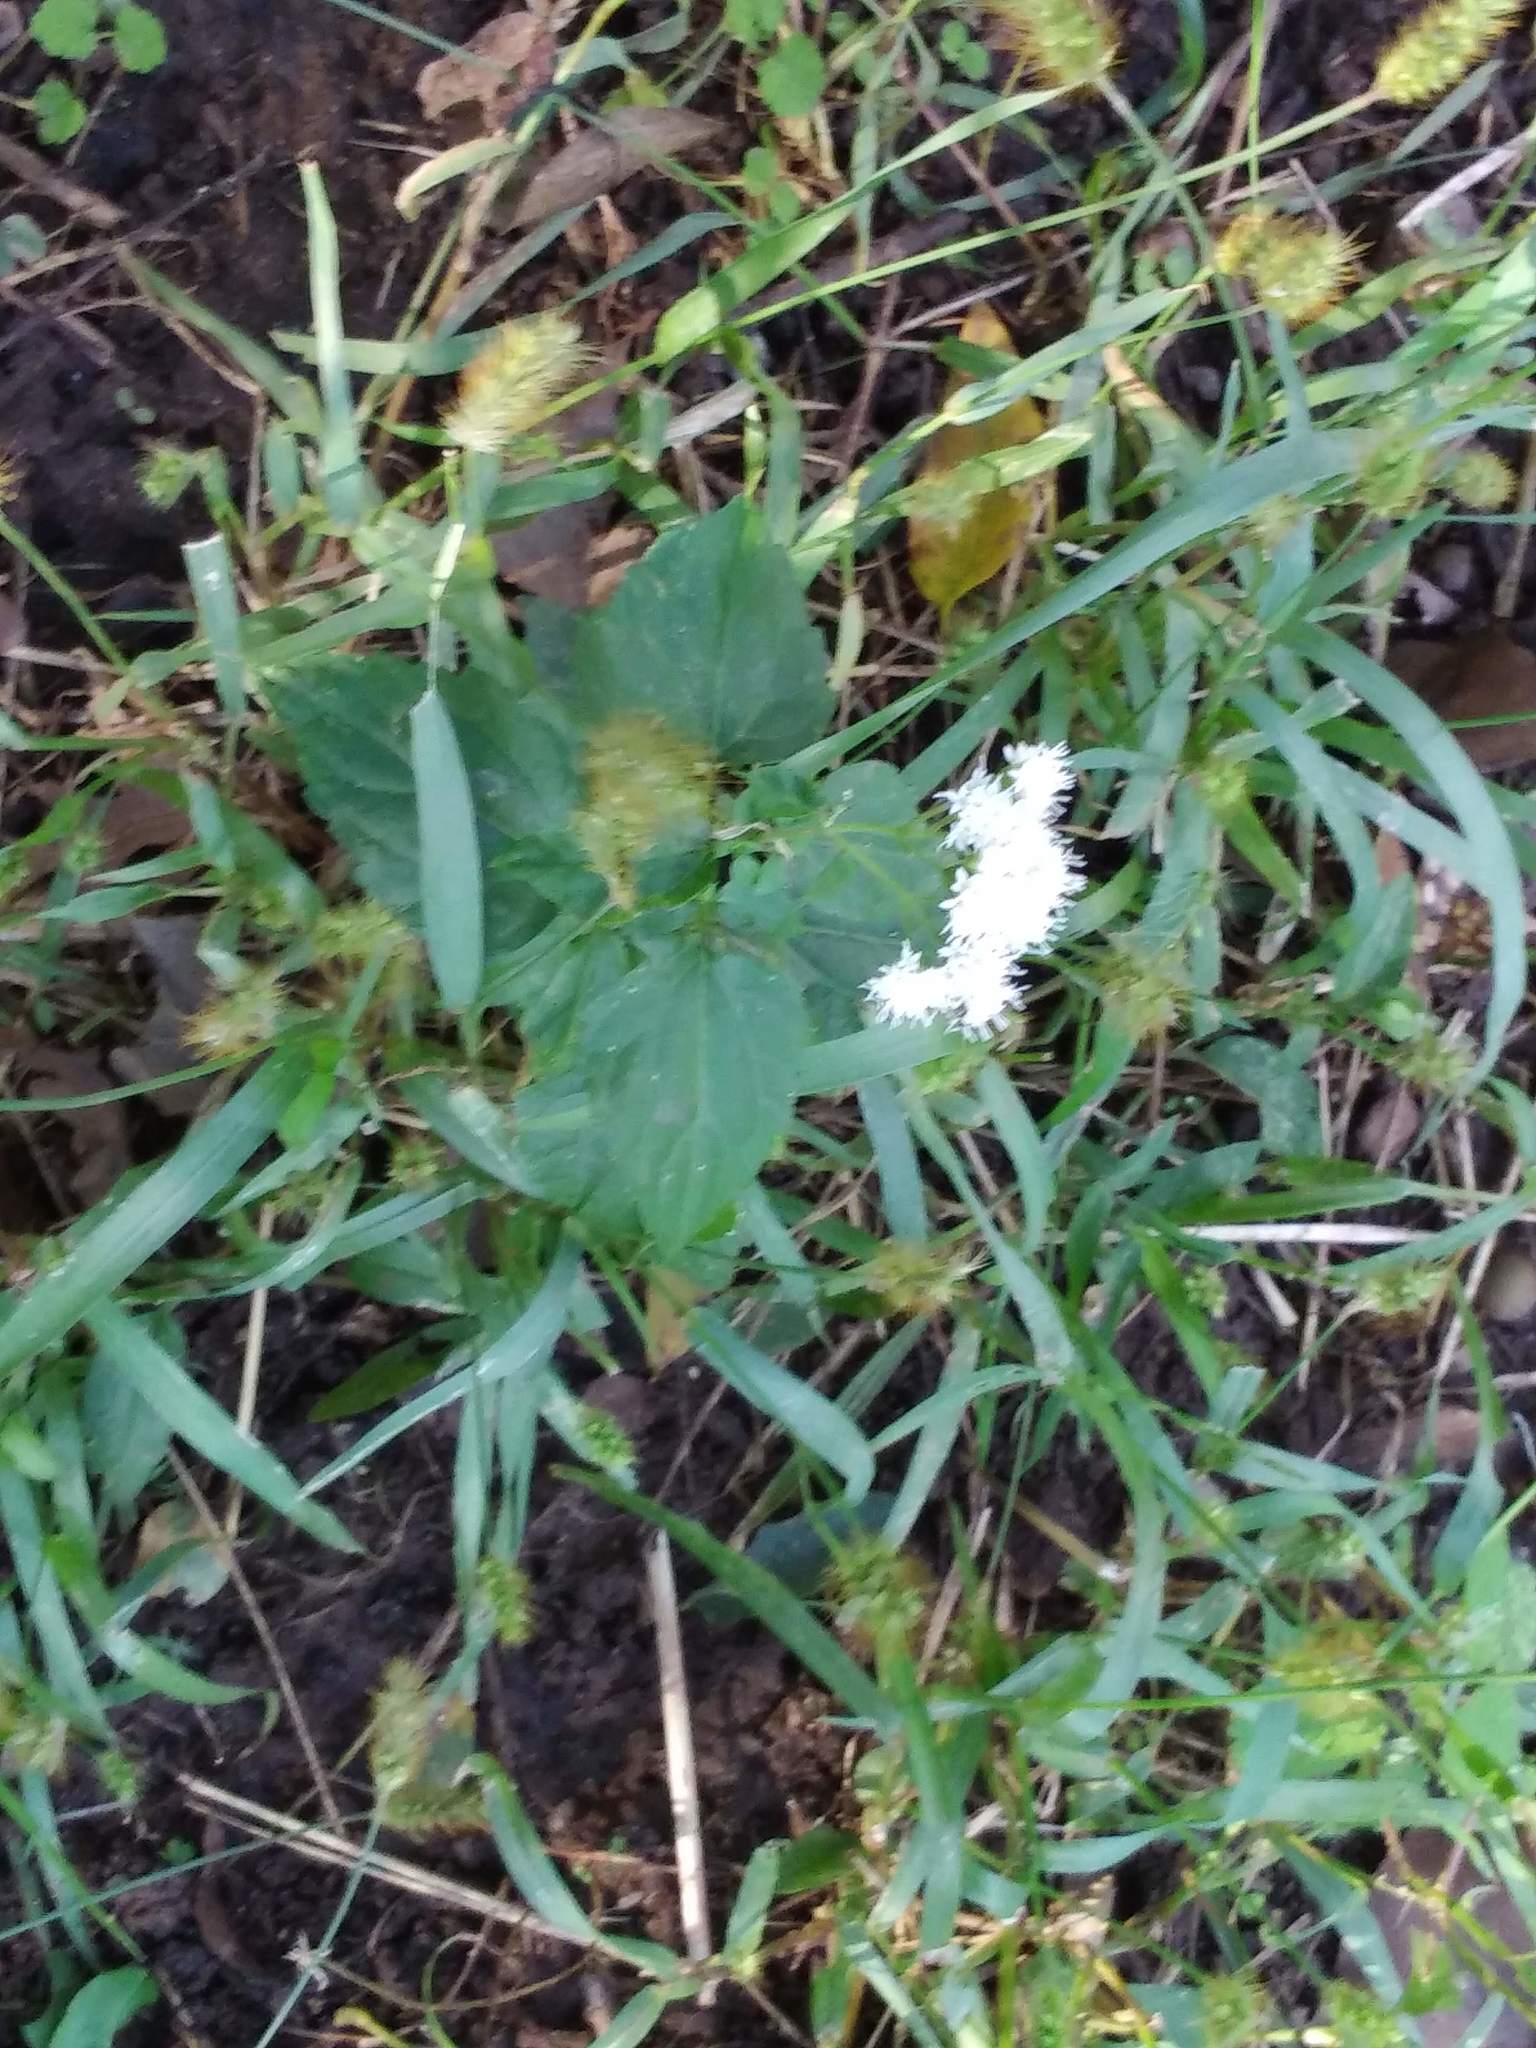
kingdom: Plantae
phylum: Tracheophyta
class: Magnoliopsida
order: Asterales
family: Asteraceae
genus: Ageratina
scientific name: Ageratina altissima
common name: White snakeroot
